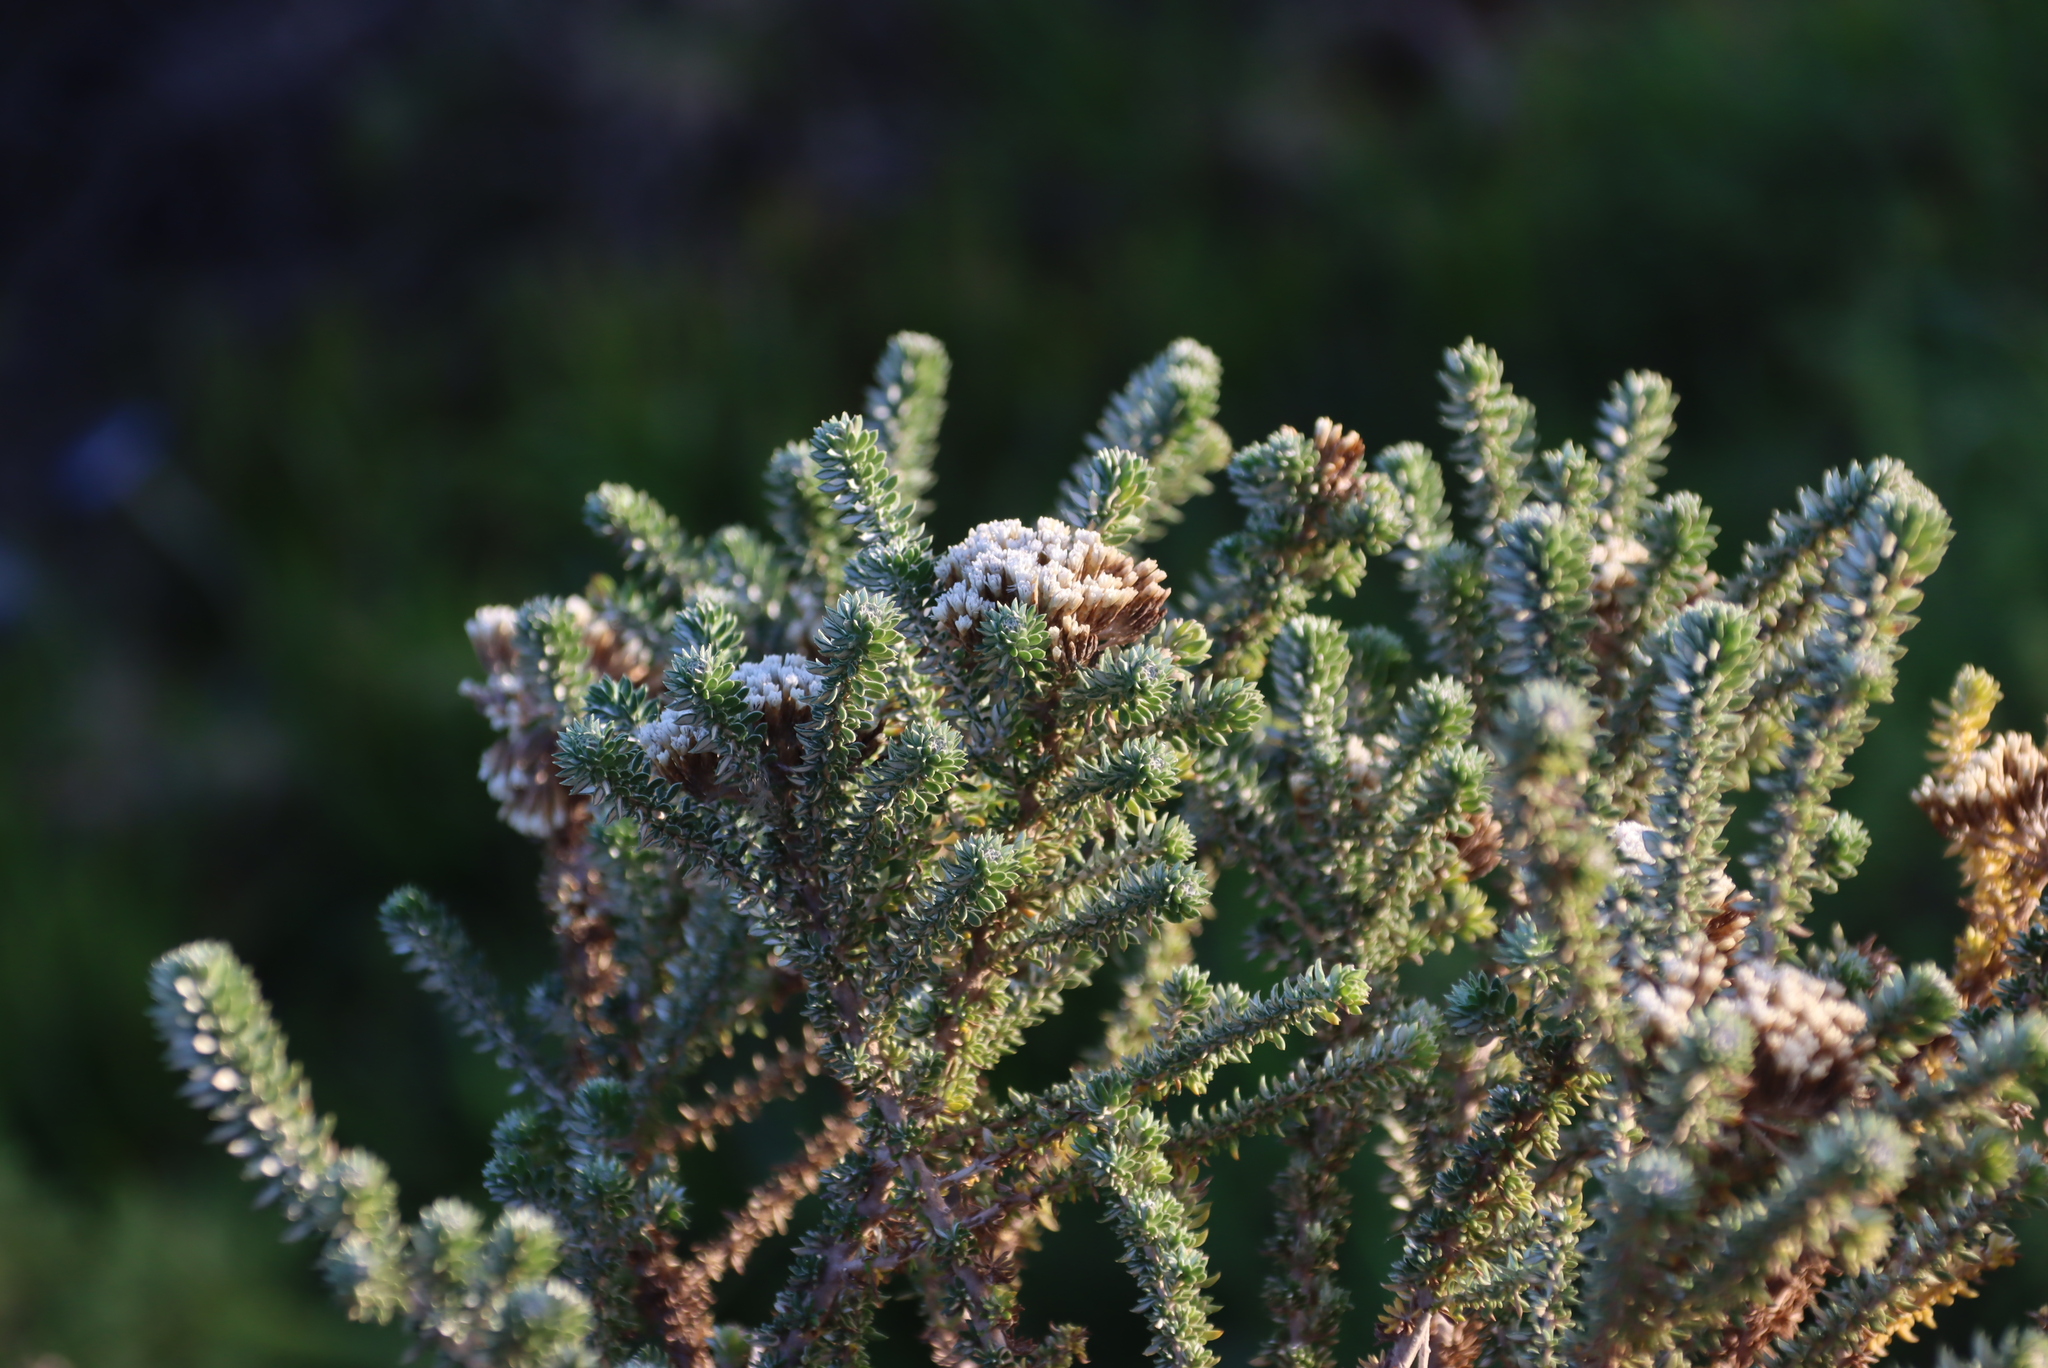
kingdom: Plantae
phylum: Tracheophyta
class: Magnoliopsida
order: Asterales
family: Asteraceae
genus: Metalasia
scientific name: Metalasia muricata
